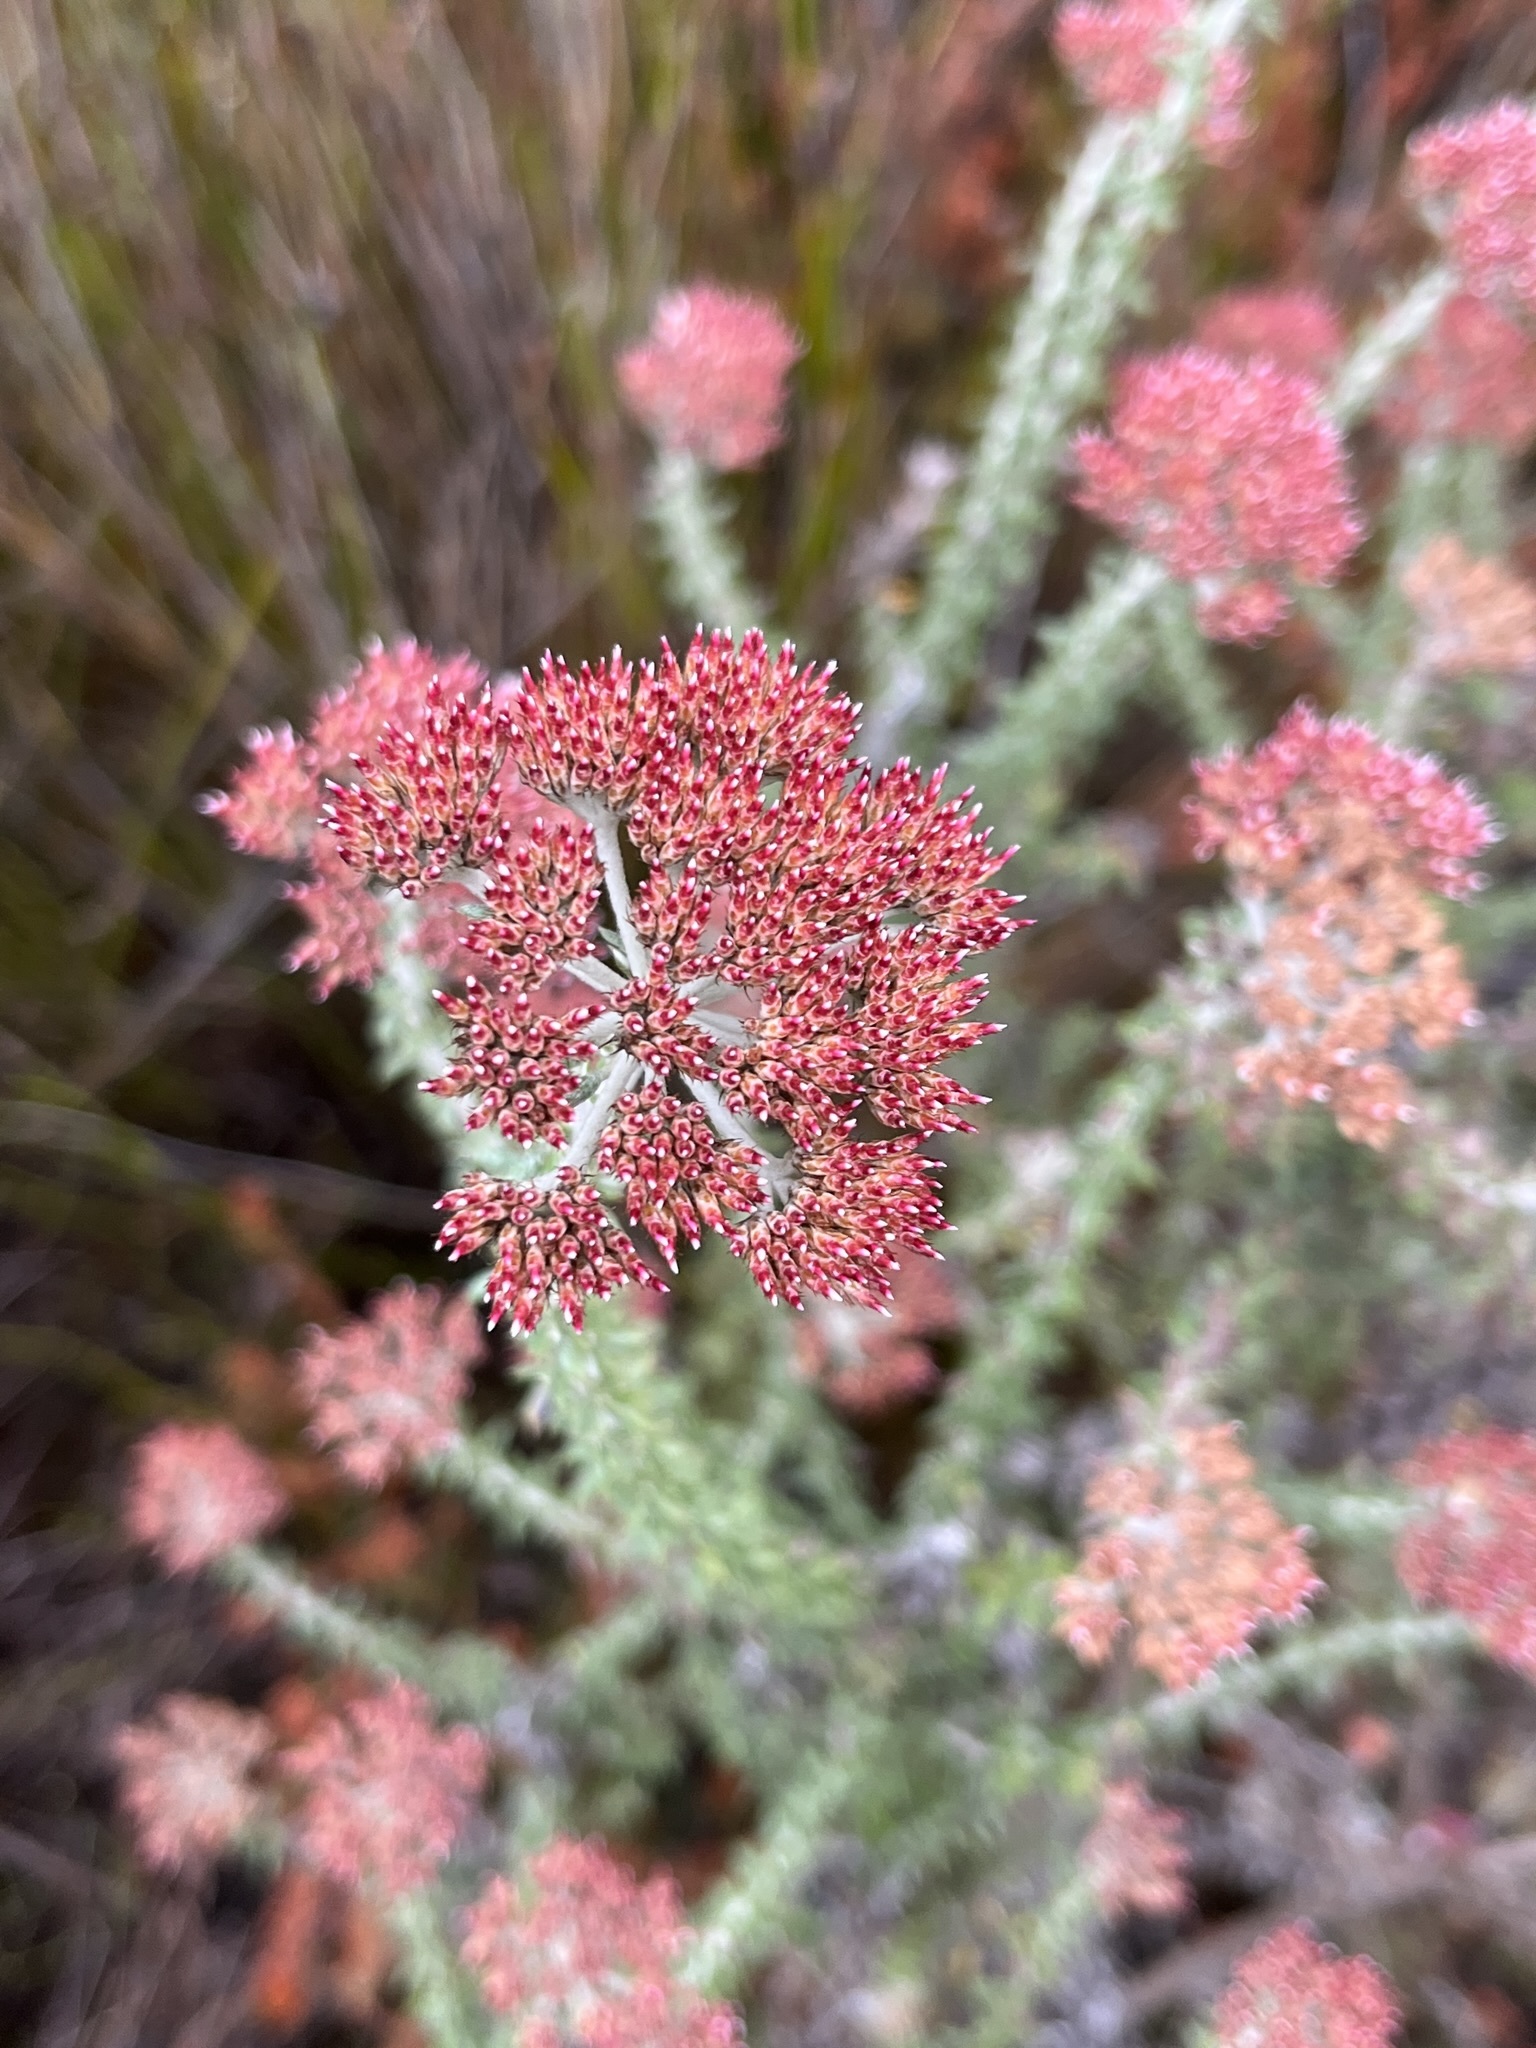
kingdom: Plantae
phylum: Tracheophyta
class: Magnoliopsida
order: Asterales
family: Asteraceae
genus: Metalasia
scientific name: Metalasia densa
